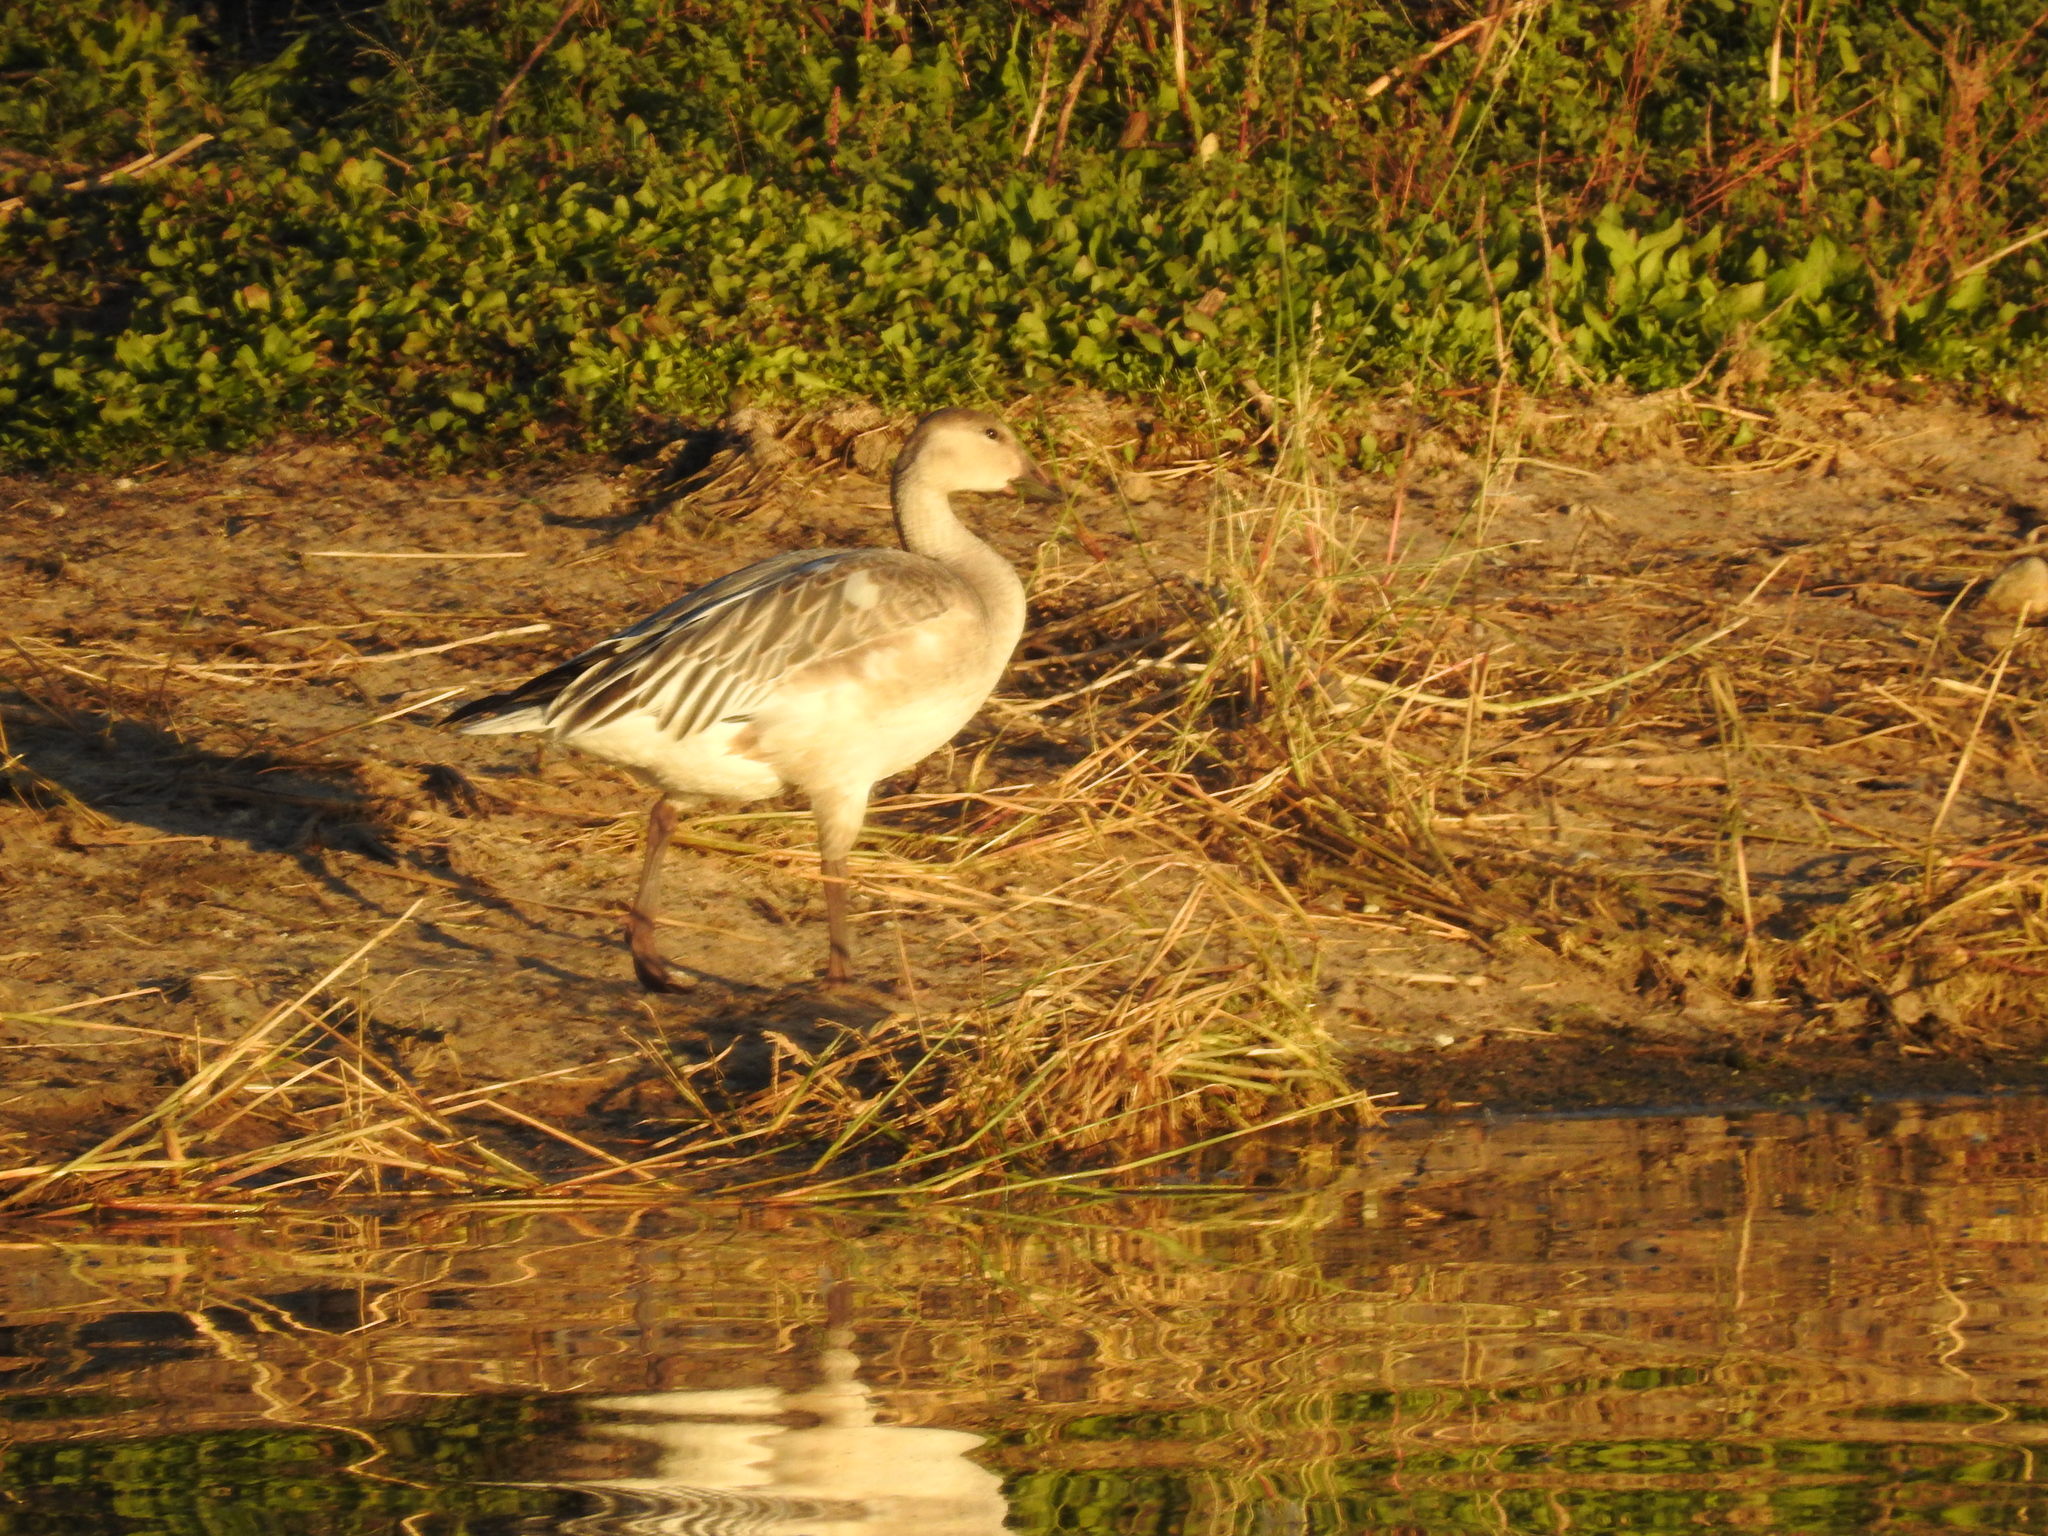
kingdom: Animalia
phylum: Chordata
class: Aves
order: Anseriformes
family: Anatidae
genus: Anser
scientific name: Anser caerulescens
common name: Snow goose
